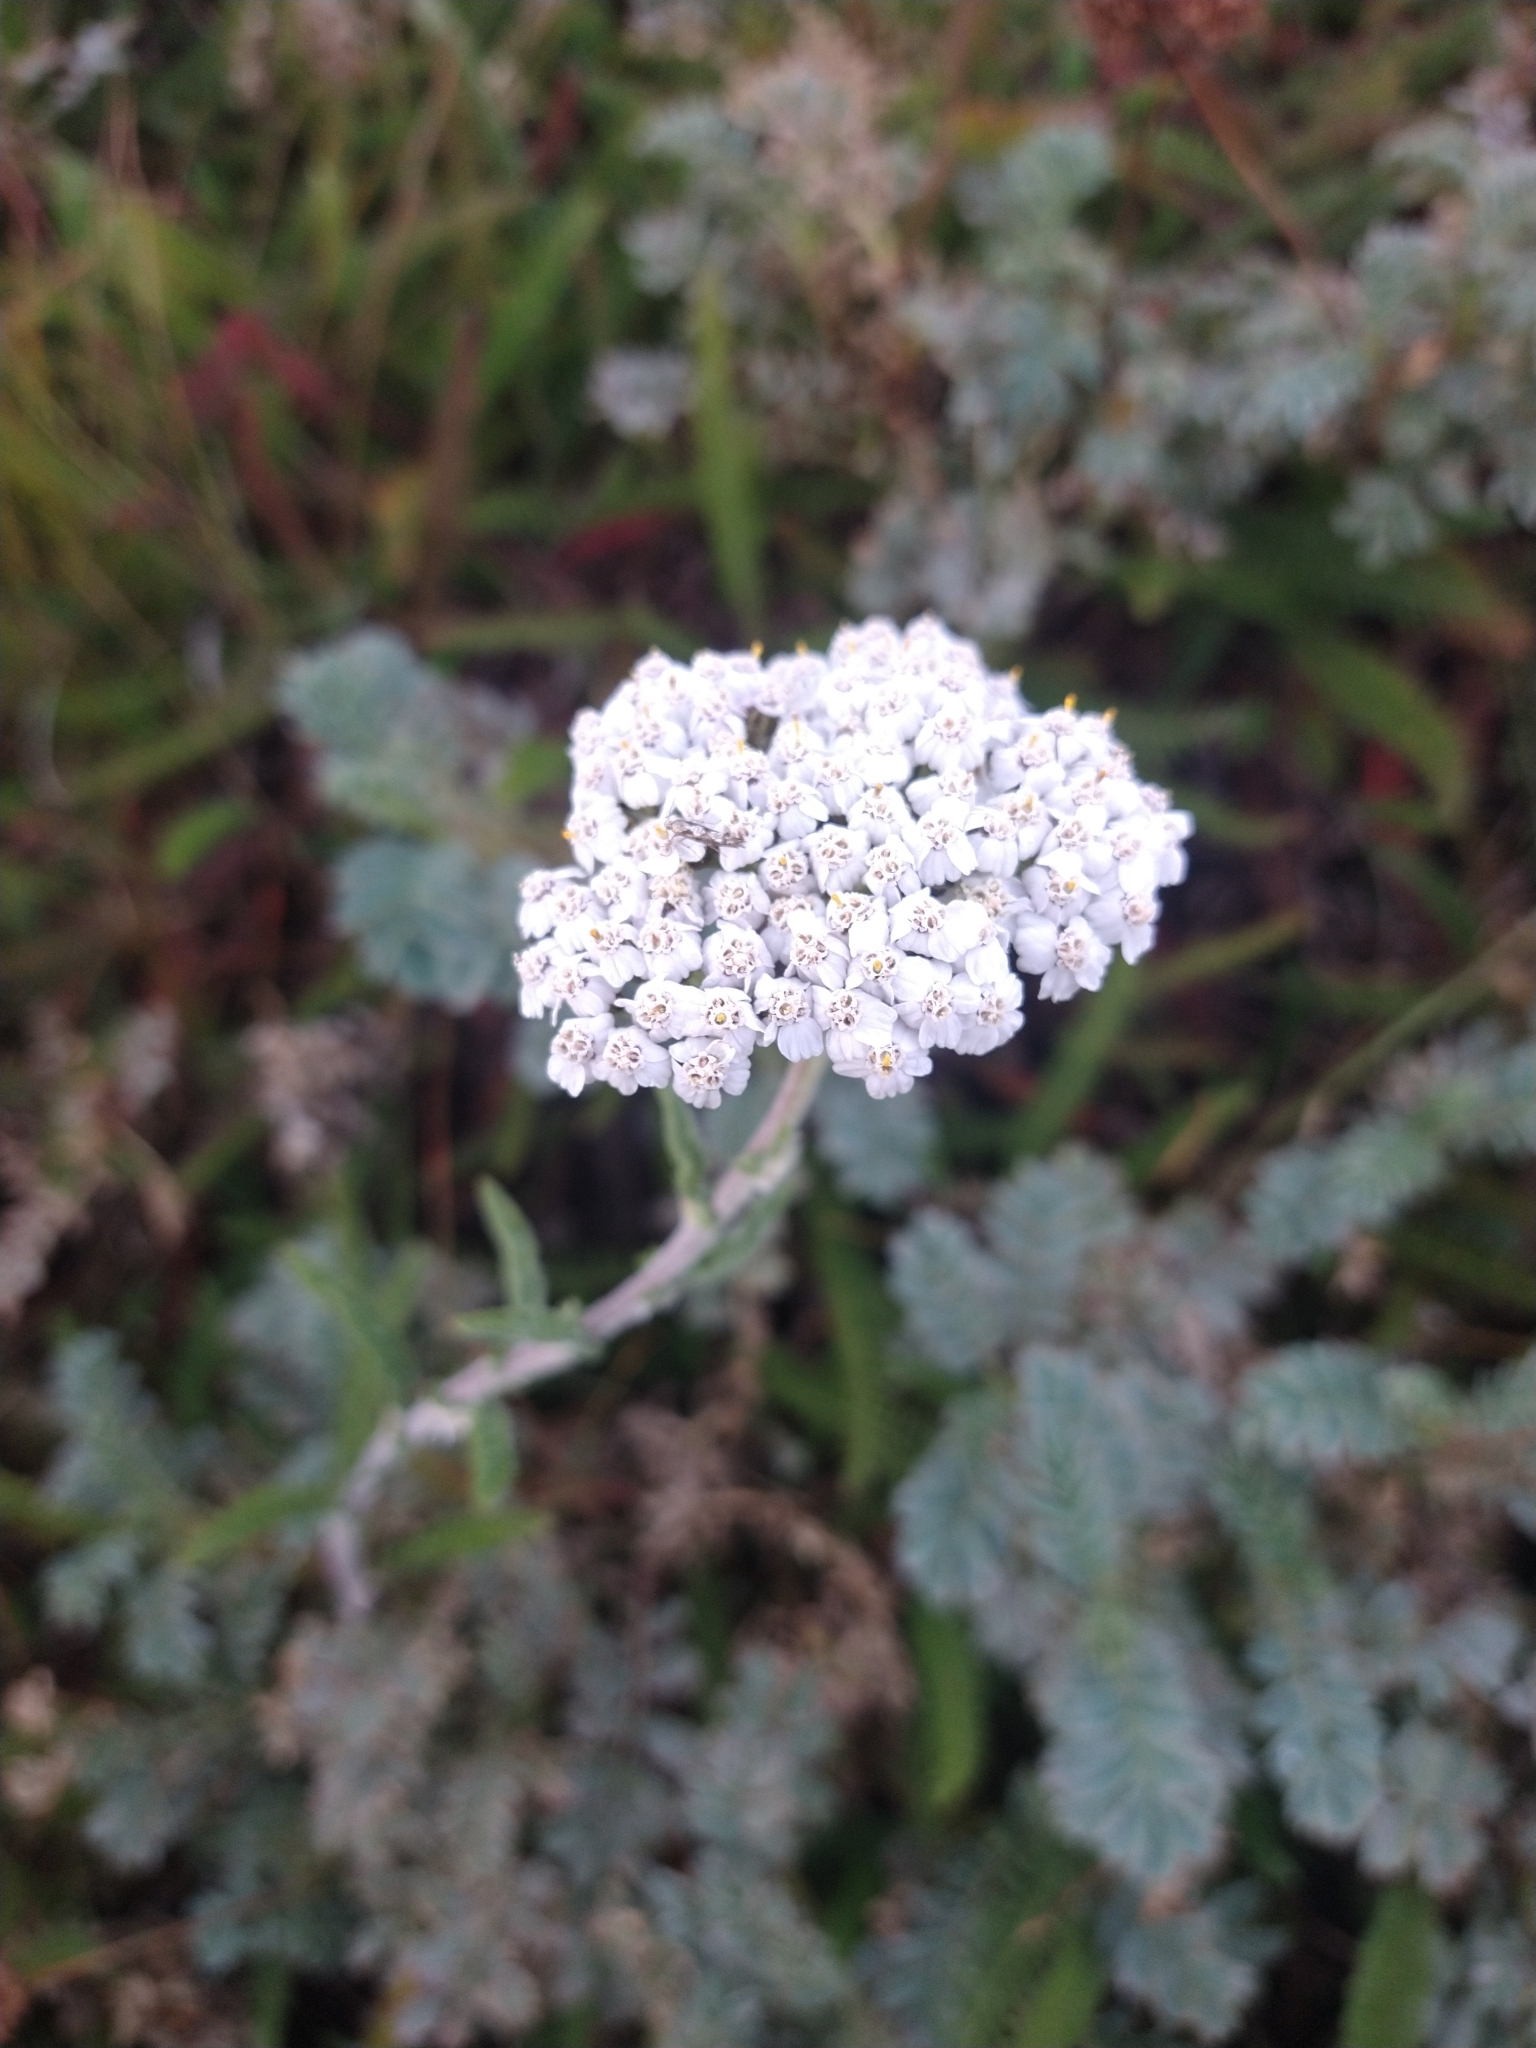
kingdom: Plantae
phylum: Tracheophyta
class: Magnoliopsida
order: Asterales
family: Asteraceae
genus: Achillea
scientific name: Achillea millefolium
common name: Yarrow
